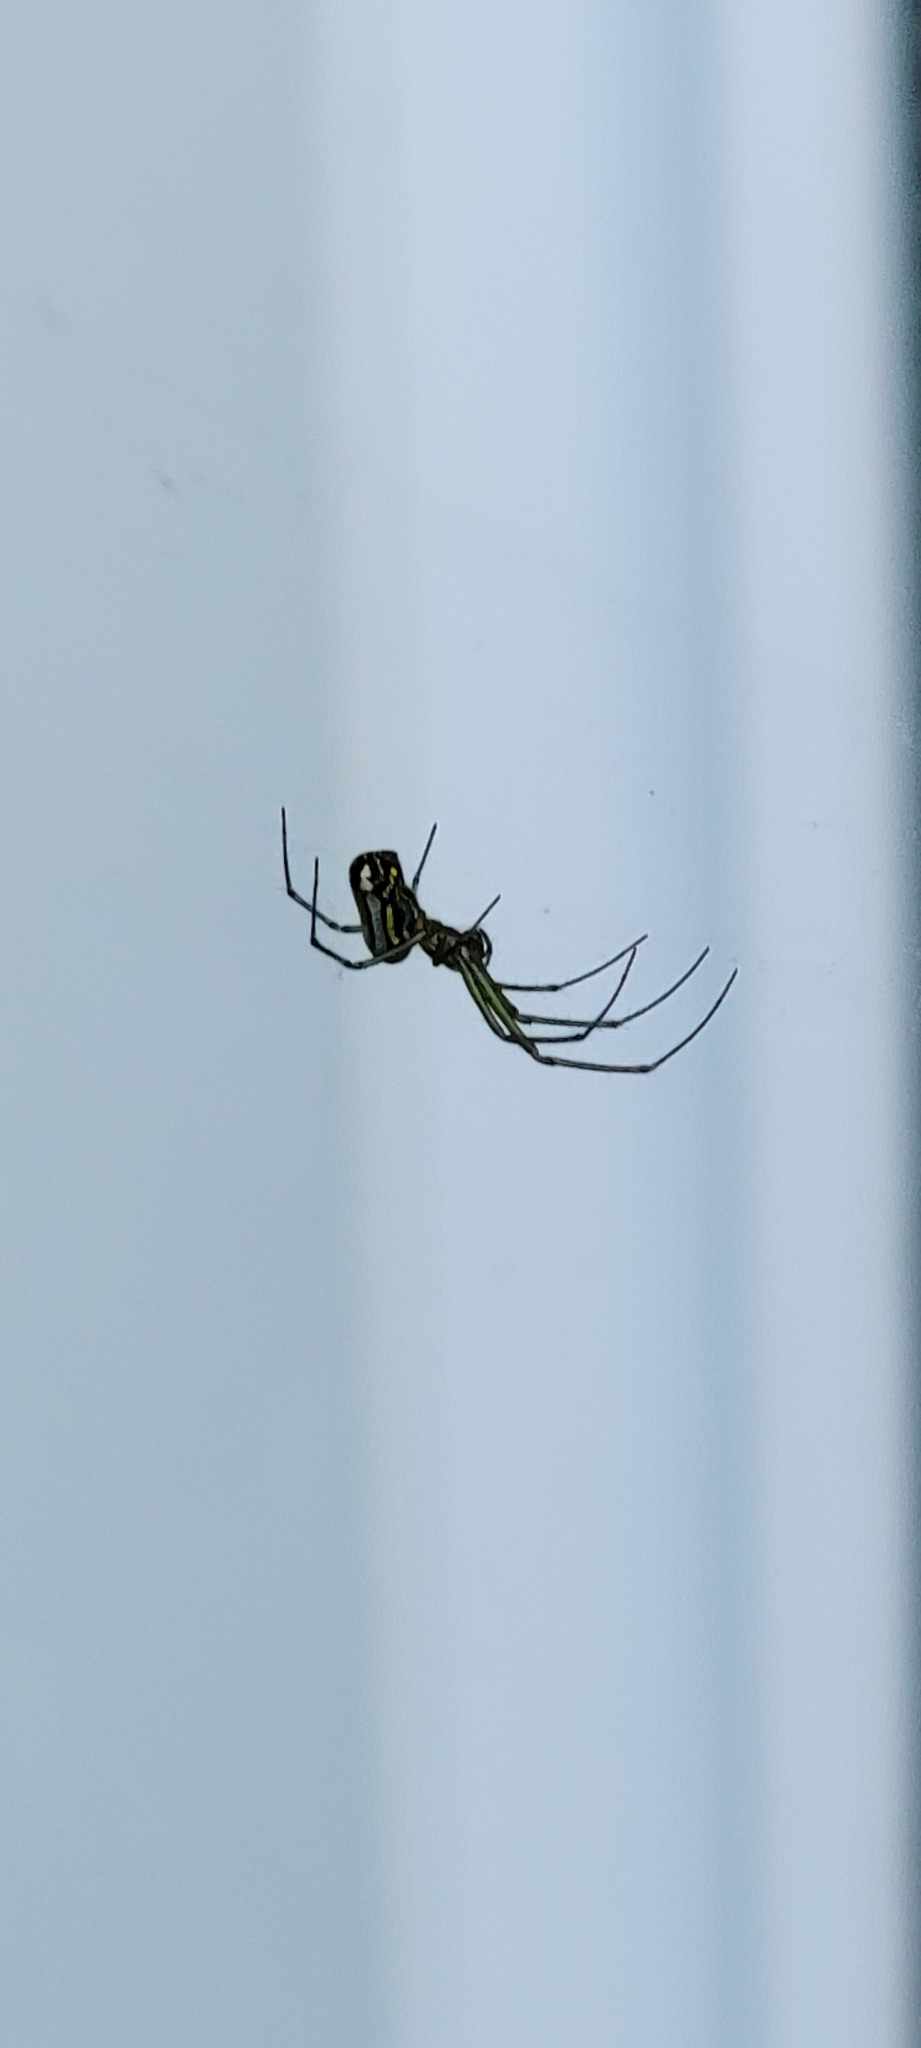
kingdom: Animalia
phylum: Arthropoda
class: Arachnida
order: Araneae
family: Tetragnathidae
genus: Leucauge
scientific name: Leucauge venusta
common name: Longjawed orb weavers
